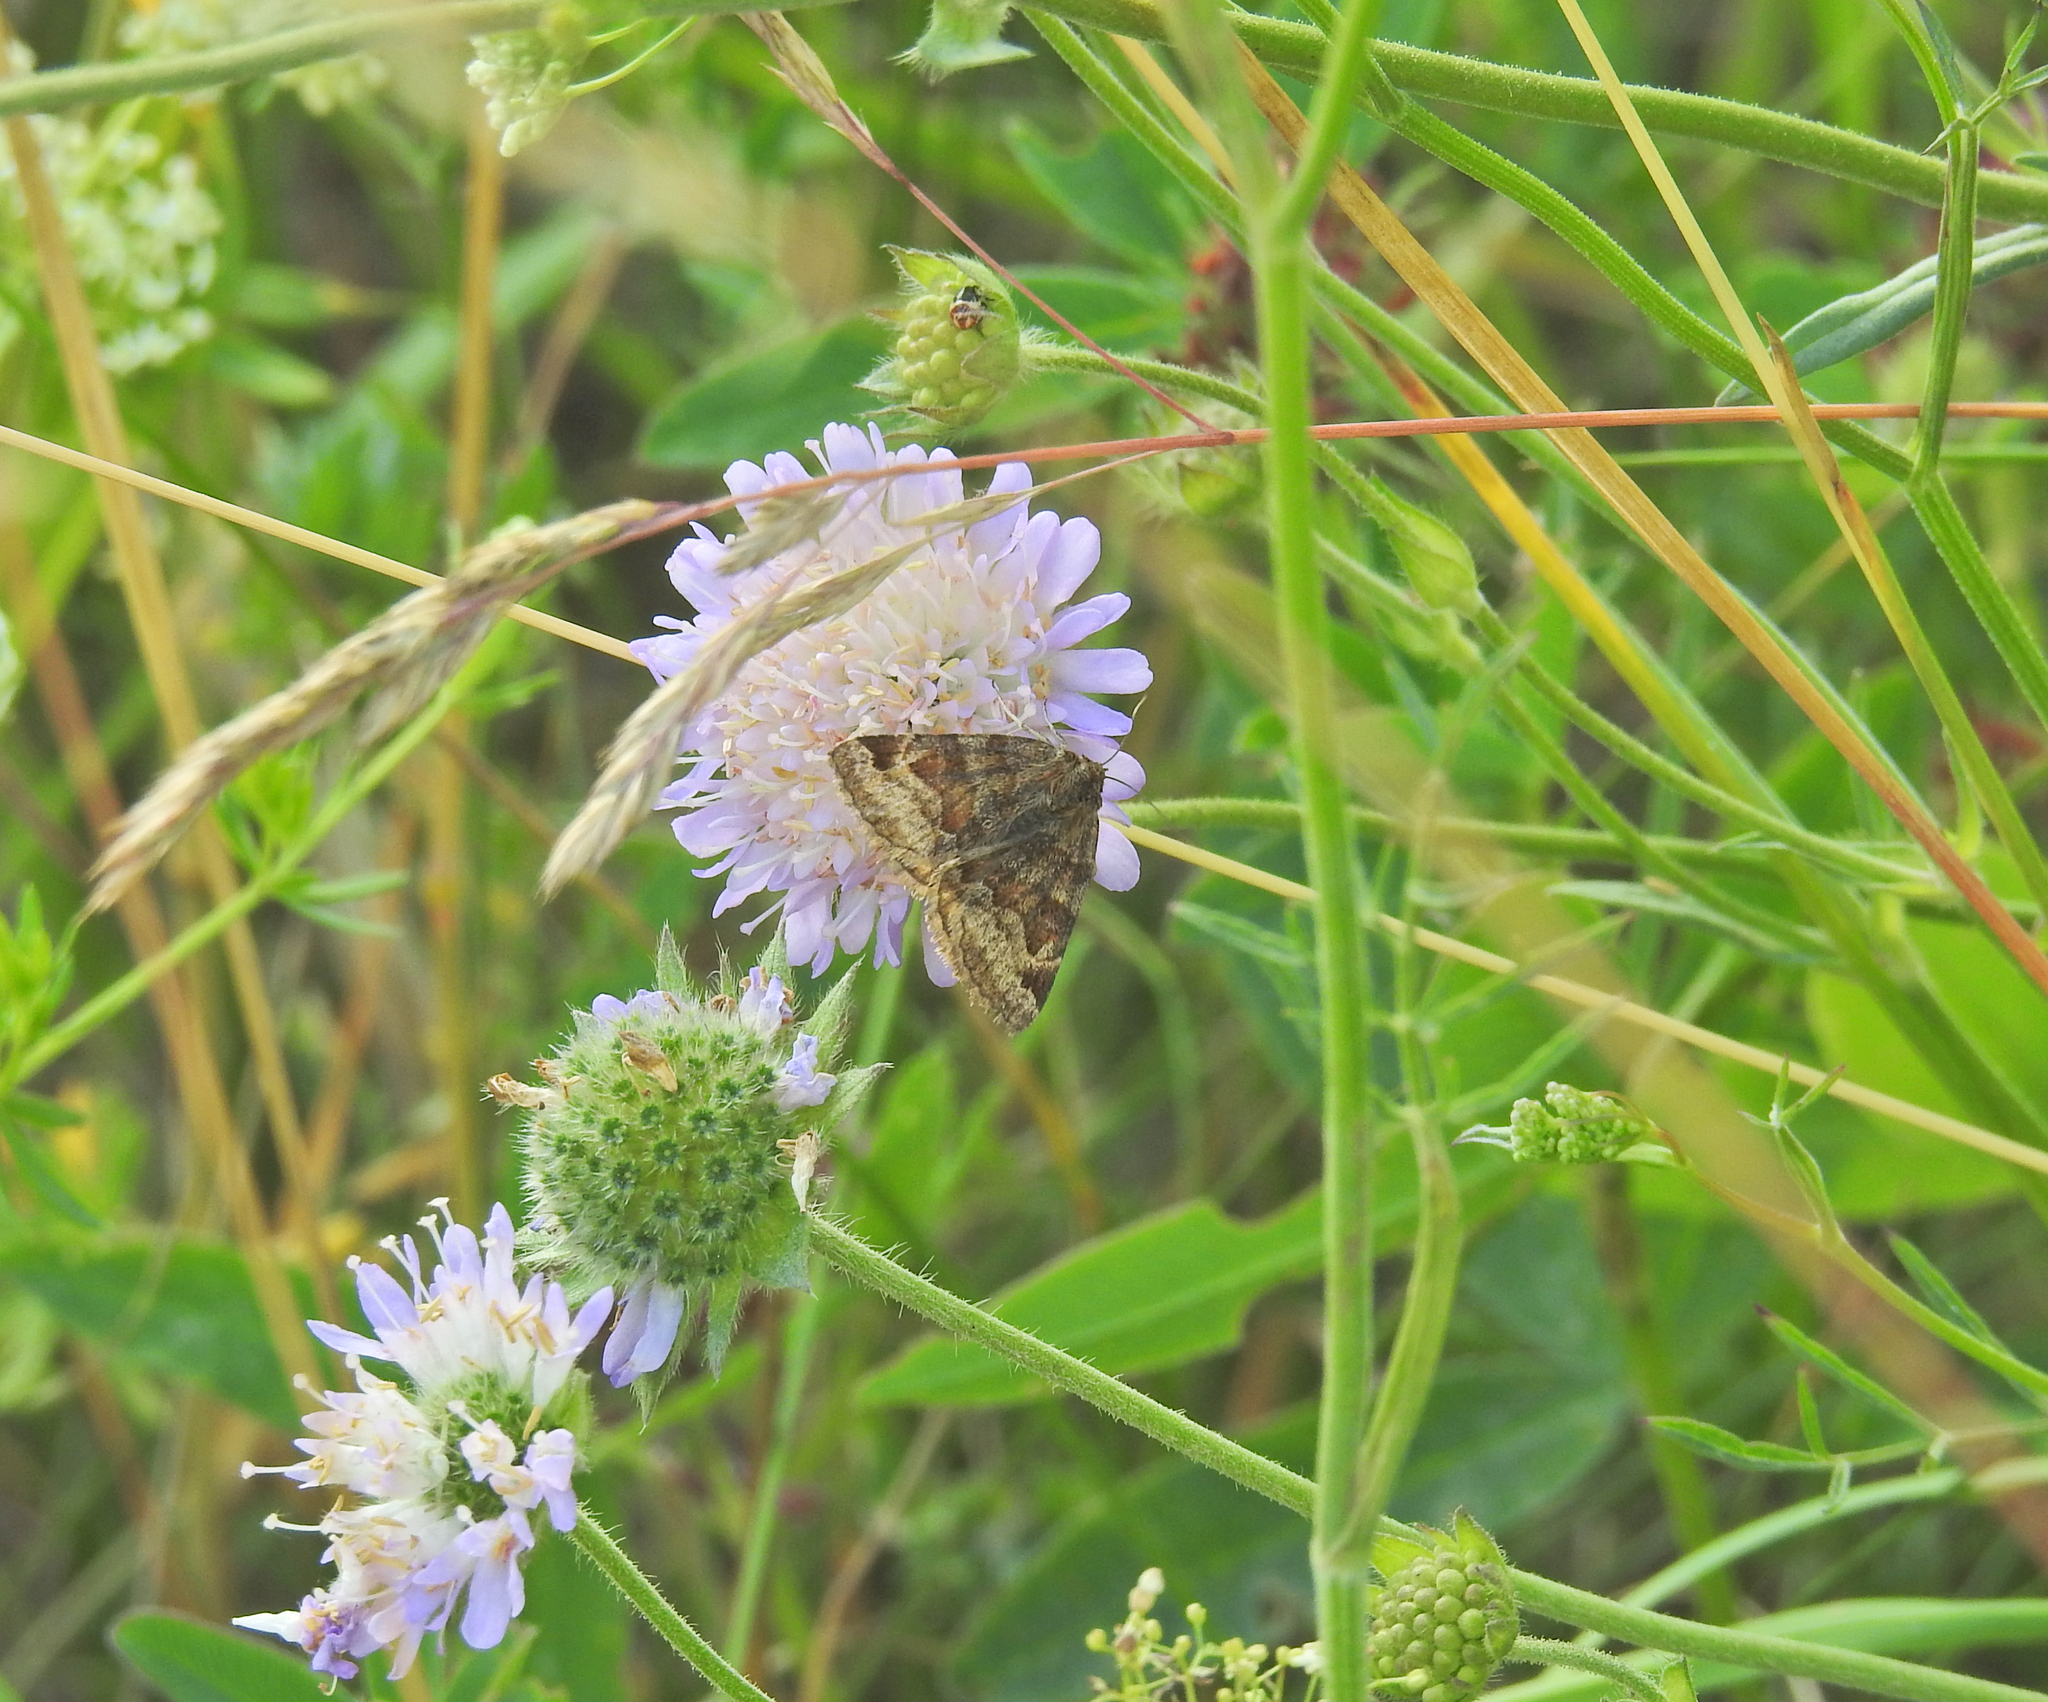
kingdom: Animalia
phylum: Arthropoda
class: Insecta
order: Lepidoptera
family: Erebidae
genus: Euclidia
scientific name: Euclidia glyphica
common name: Burnet companion
